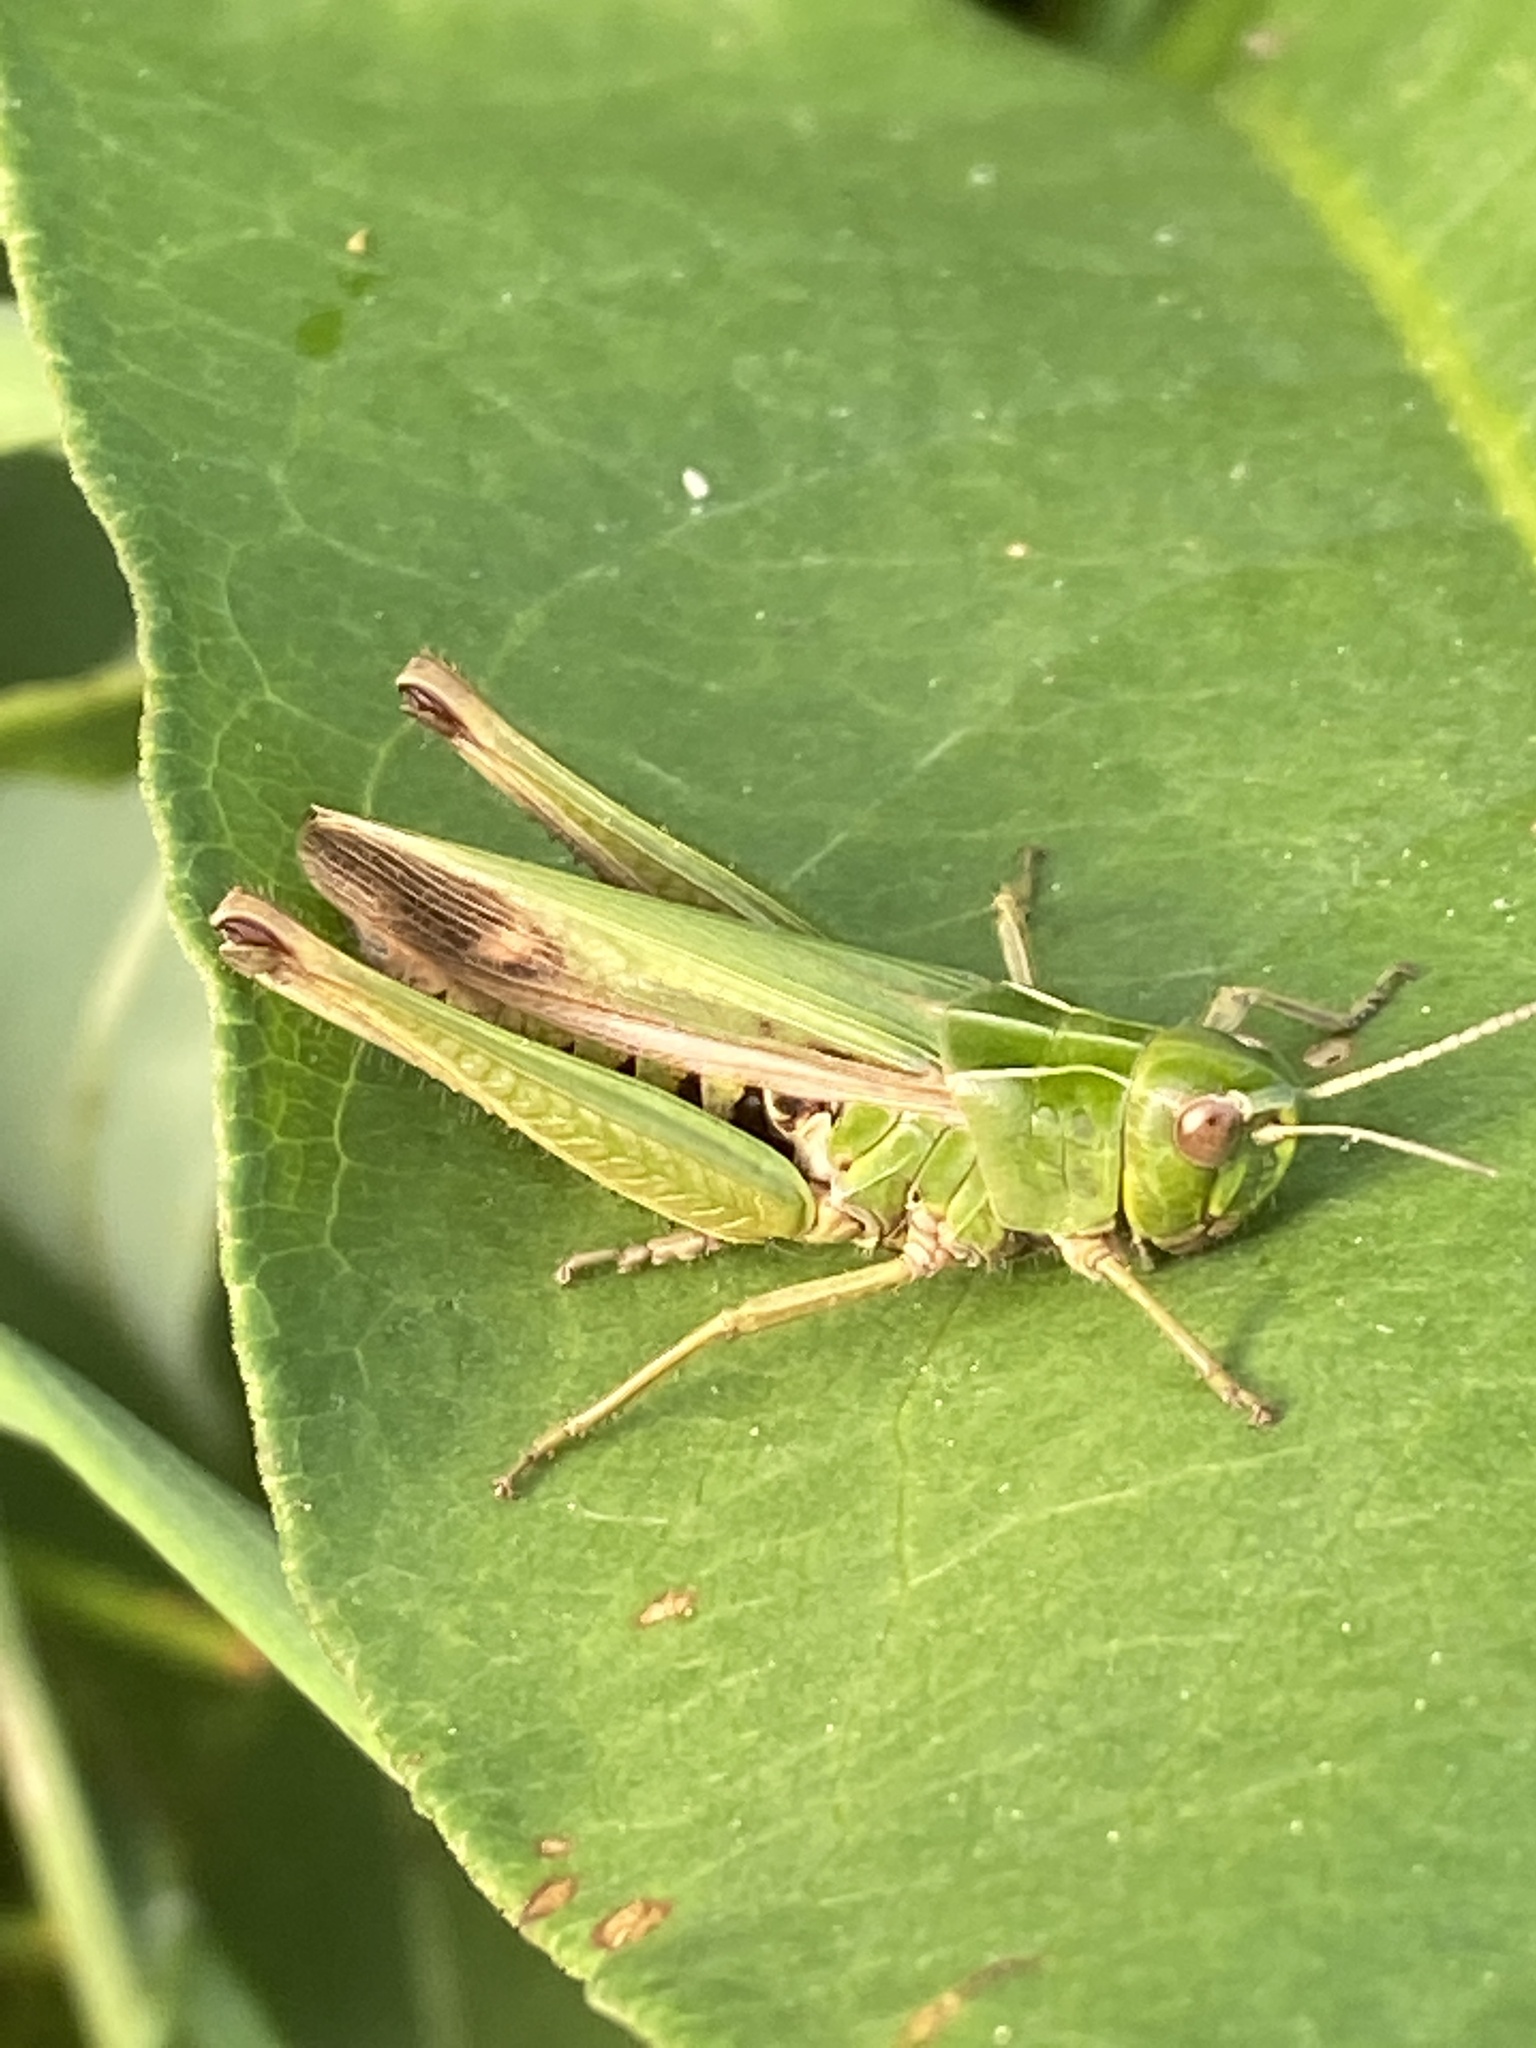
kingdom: Animalia
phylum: Arthropoda
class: Insecta
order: Orthoptera
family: Acrididae
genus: Omocestus
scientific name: Omocestus viridulus
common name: Common green grasshopper
